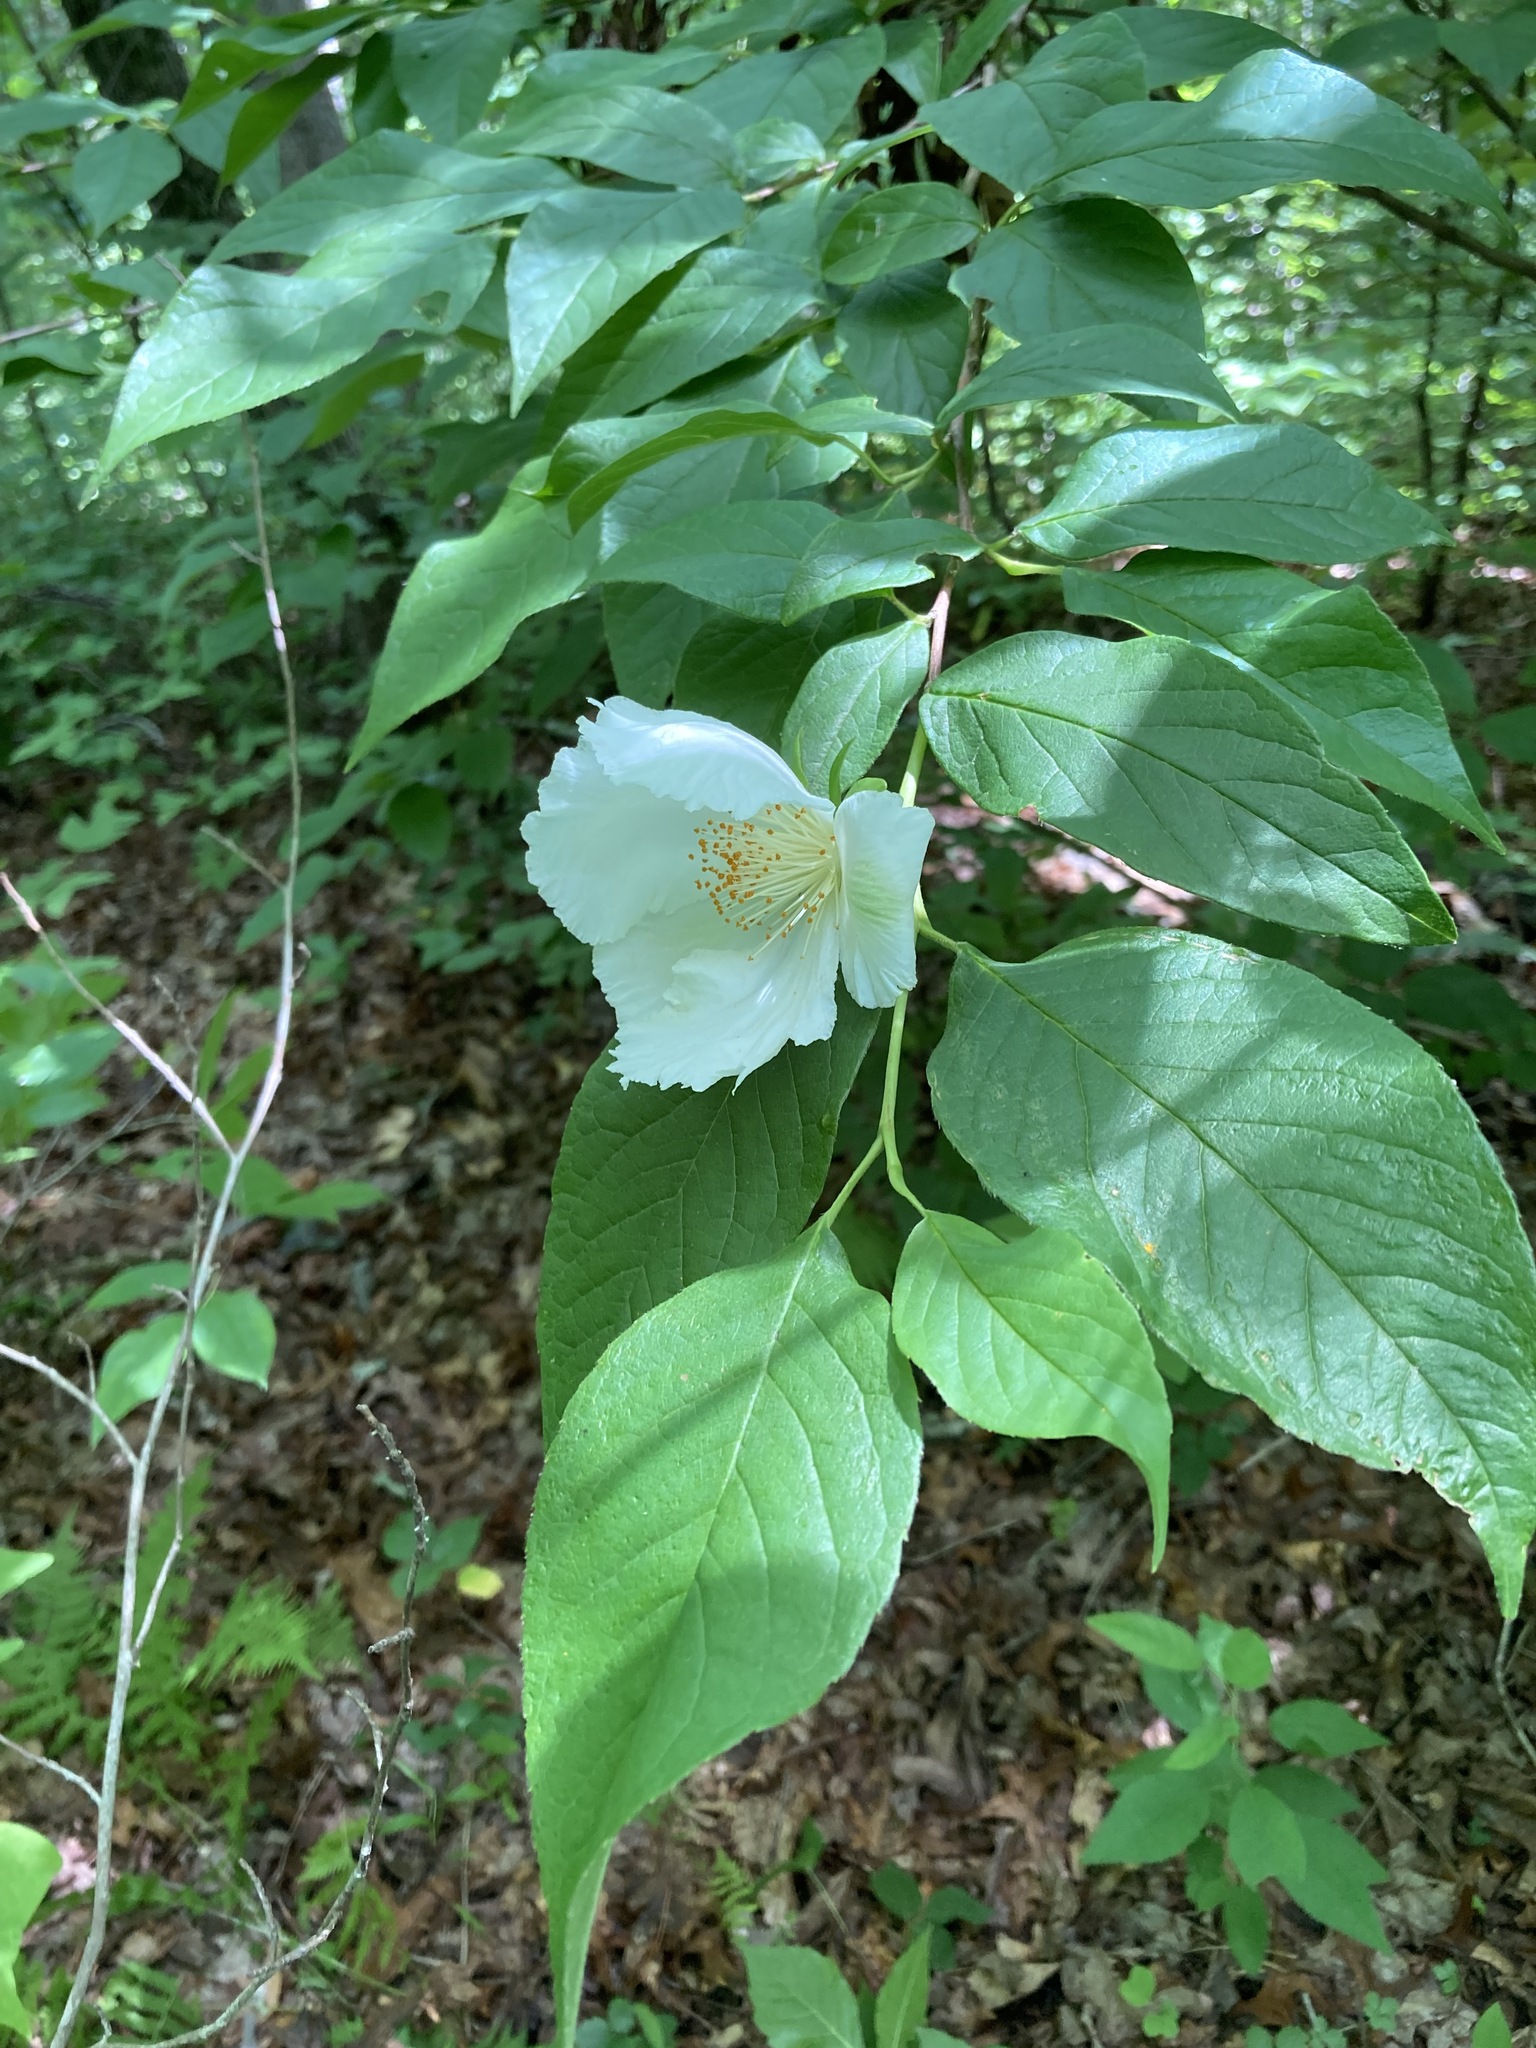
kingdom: Plantae
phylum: Tracheophyta
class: Magnoliopsida
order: Ericales
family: Theaceae
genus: Stewartia
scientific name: Stewartia ovata
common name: Mountain camellia
